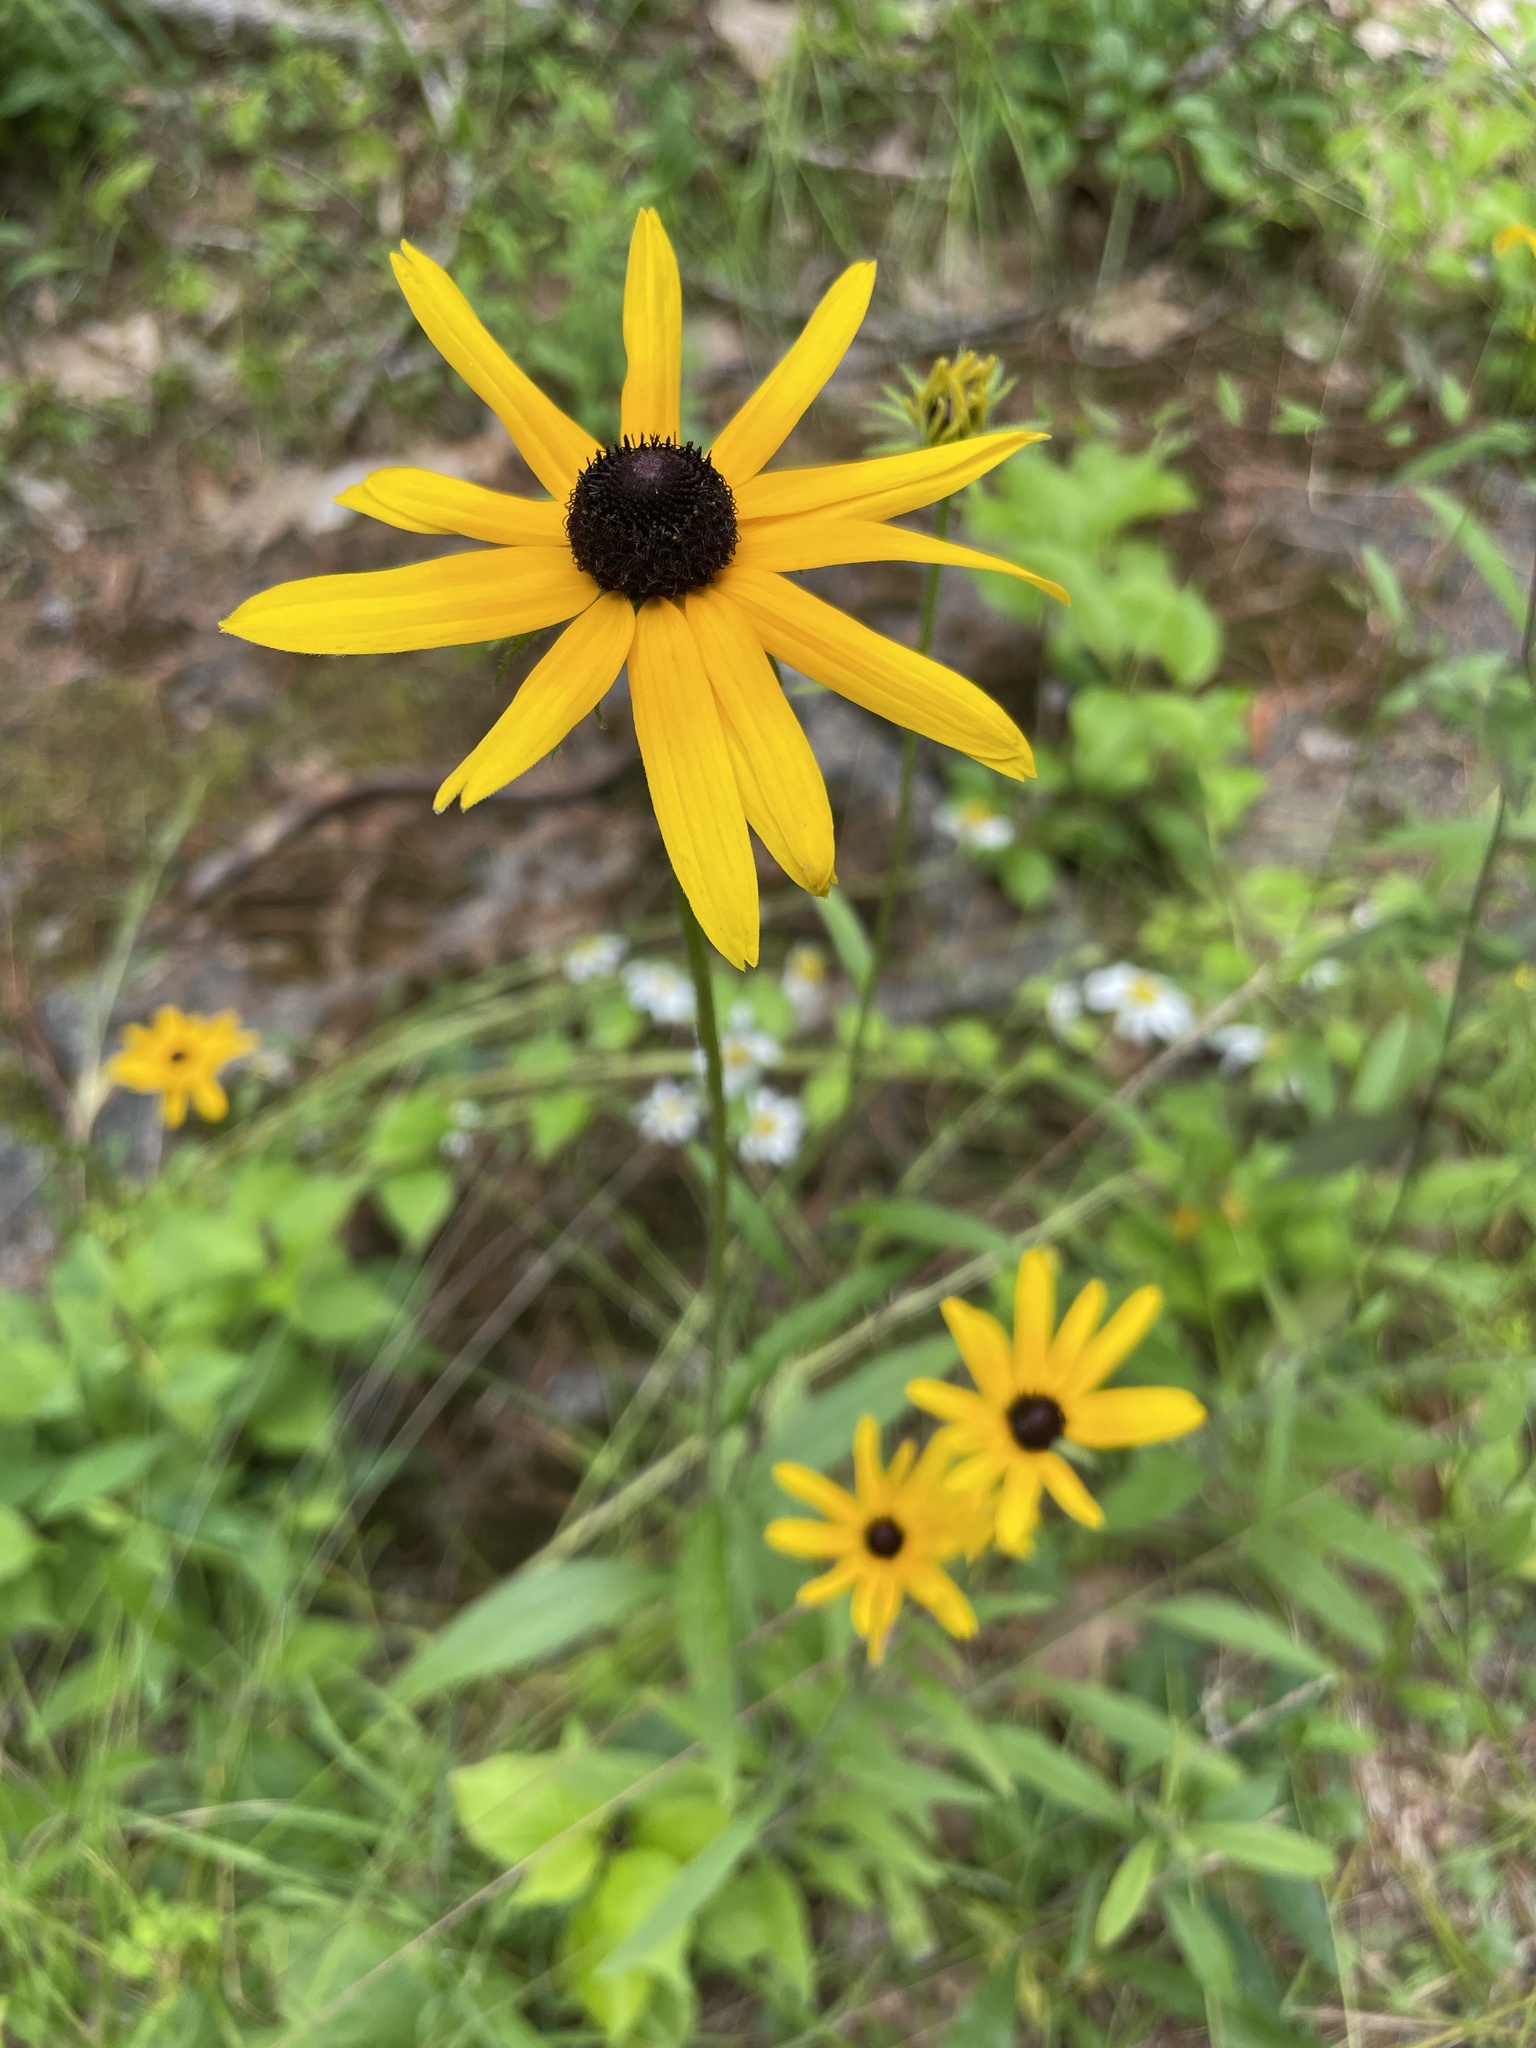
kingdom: Plantae
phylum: Tracheophyta
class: Magnoliopsida
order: Asterales
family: Asteraceae
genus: Rudbeckia
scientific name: Rudbeckia hirta
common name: Black-eyed-susan
